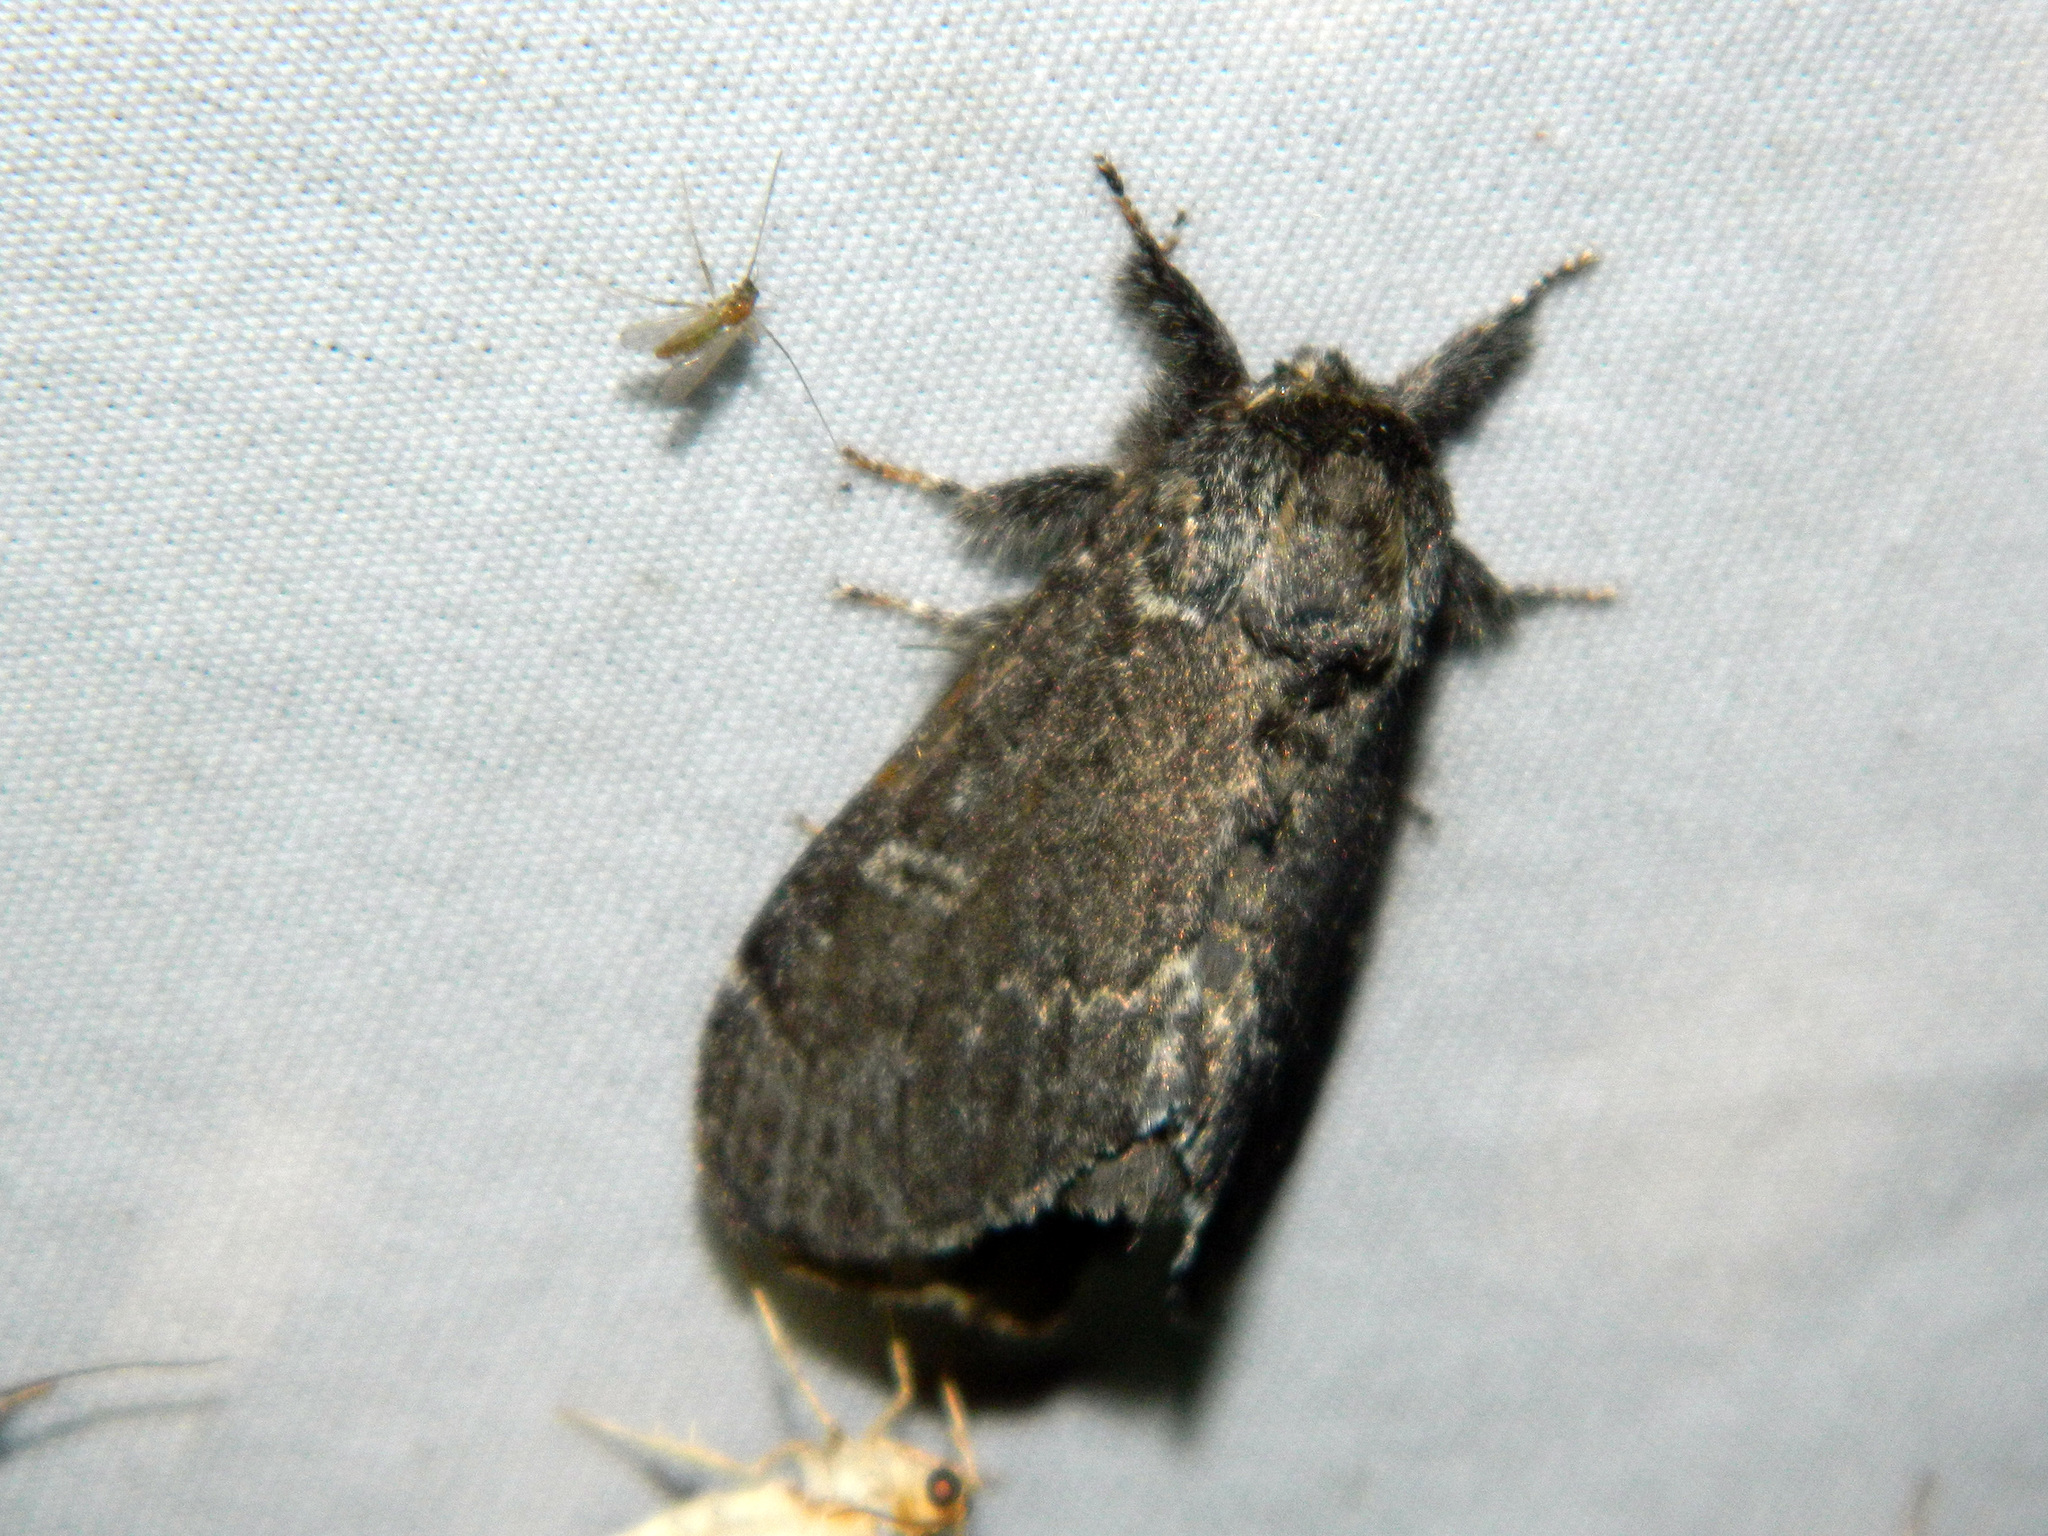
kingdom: Animalia
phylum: Arthropoda
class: Insecta
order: Lepidoptera
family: Notodontidae
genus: Notodonta
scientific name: Notodonta torva
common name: Large dark prominent
